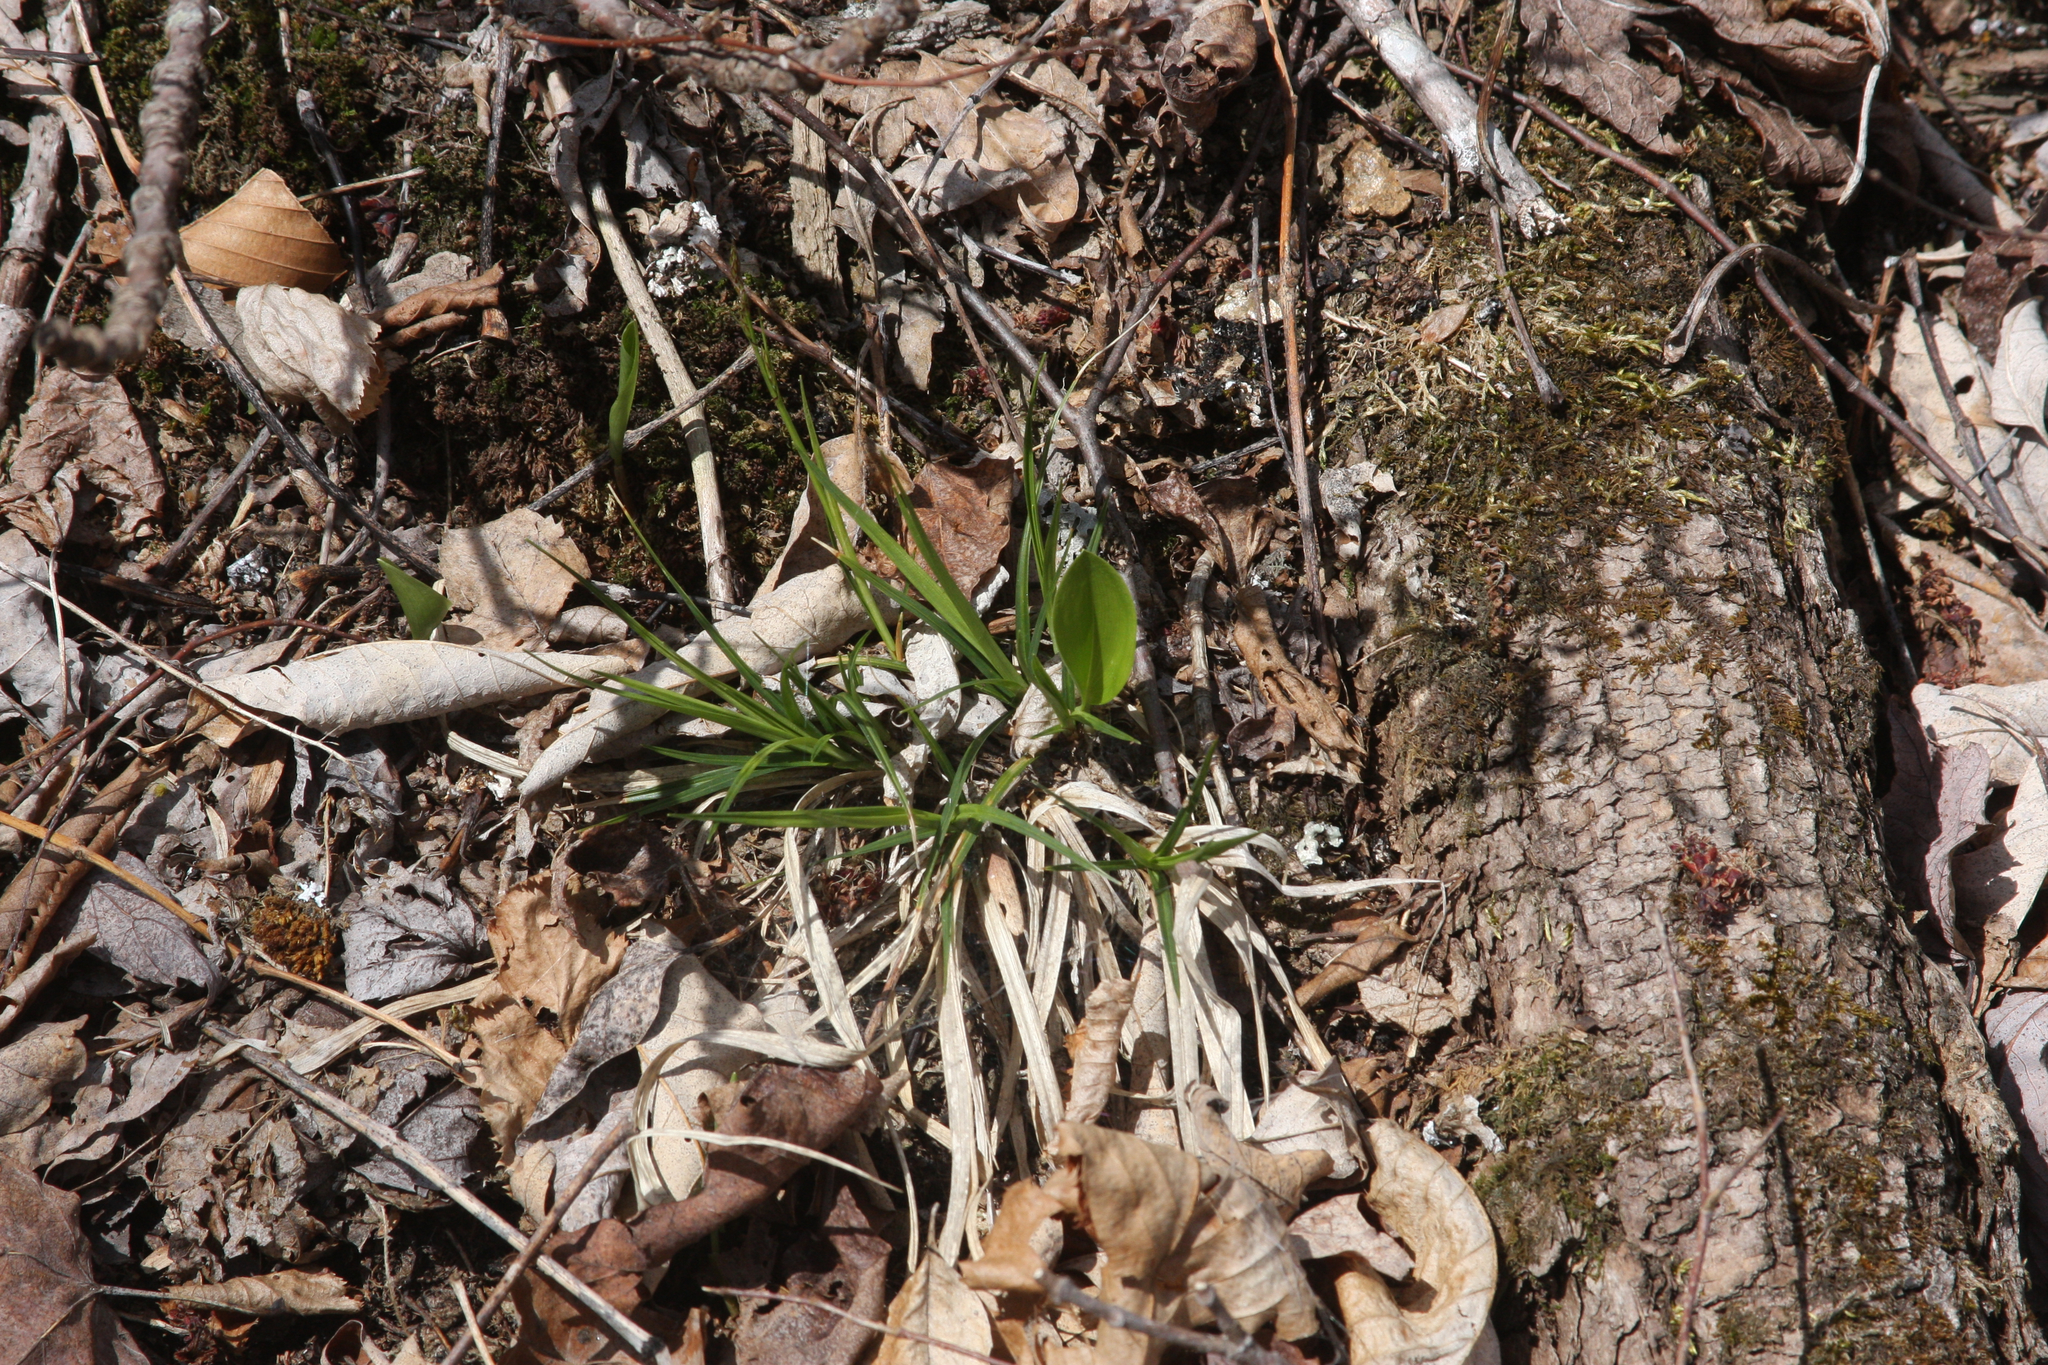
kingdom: Plantae
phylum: Tracheophyta
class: Liliopsida
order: Asparagales
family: Asparagaceae
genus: Maianthemum
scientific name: Maianthemum canadense
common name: False lily-of-the-valley
